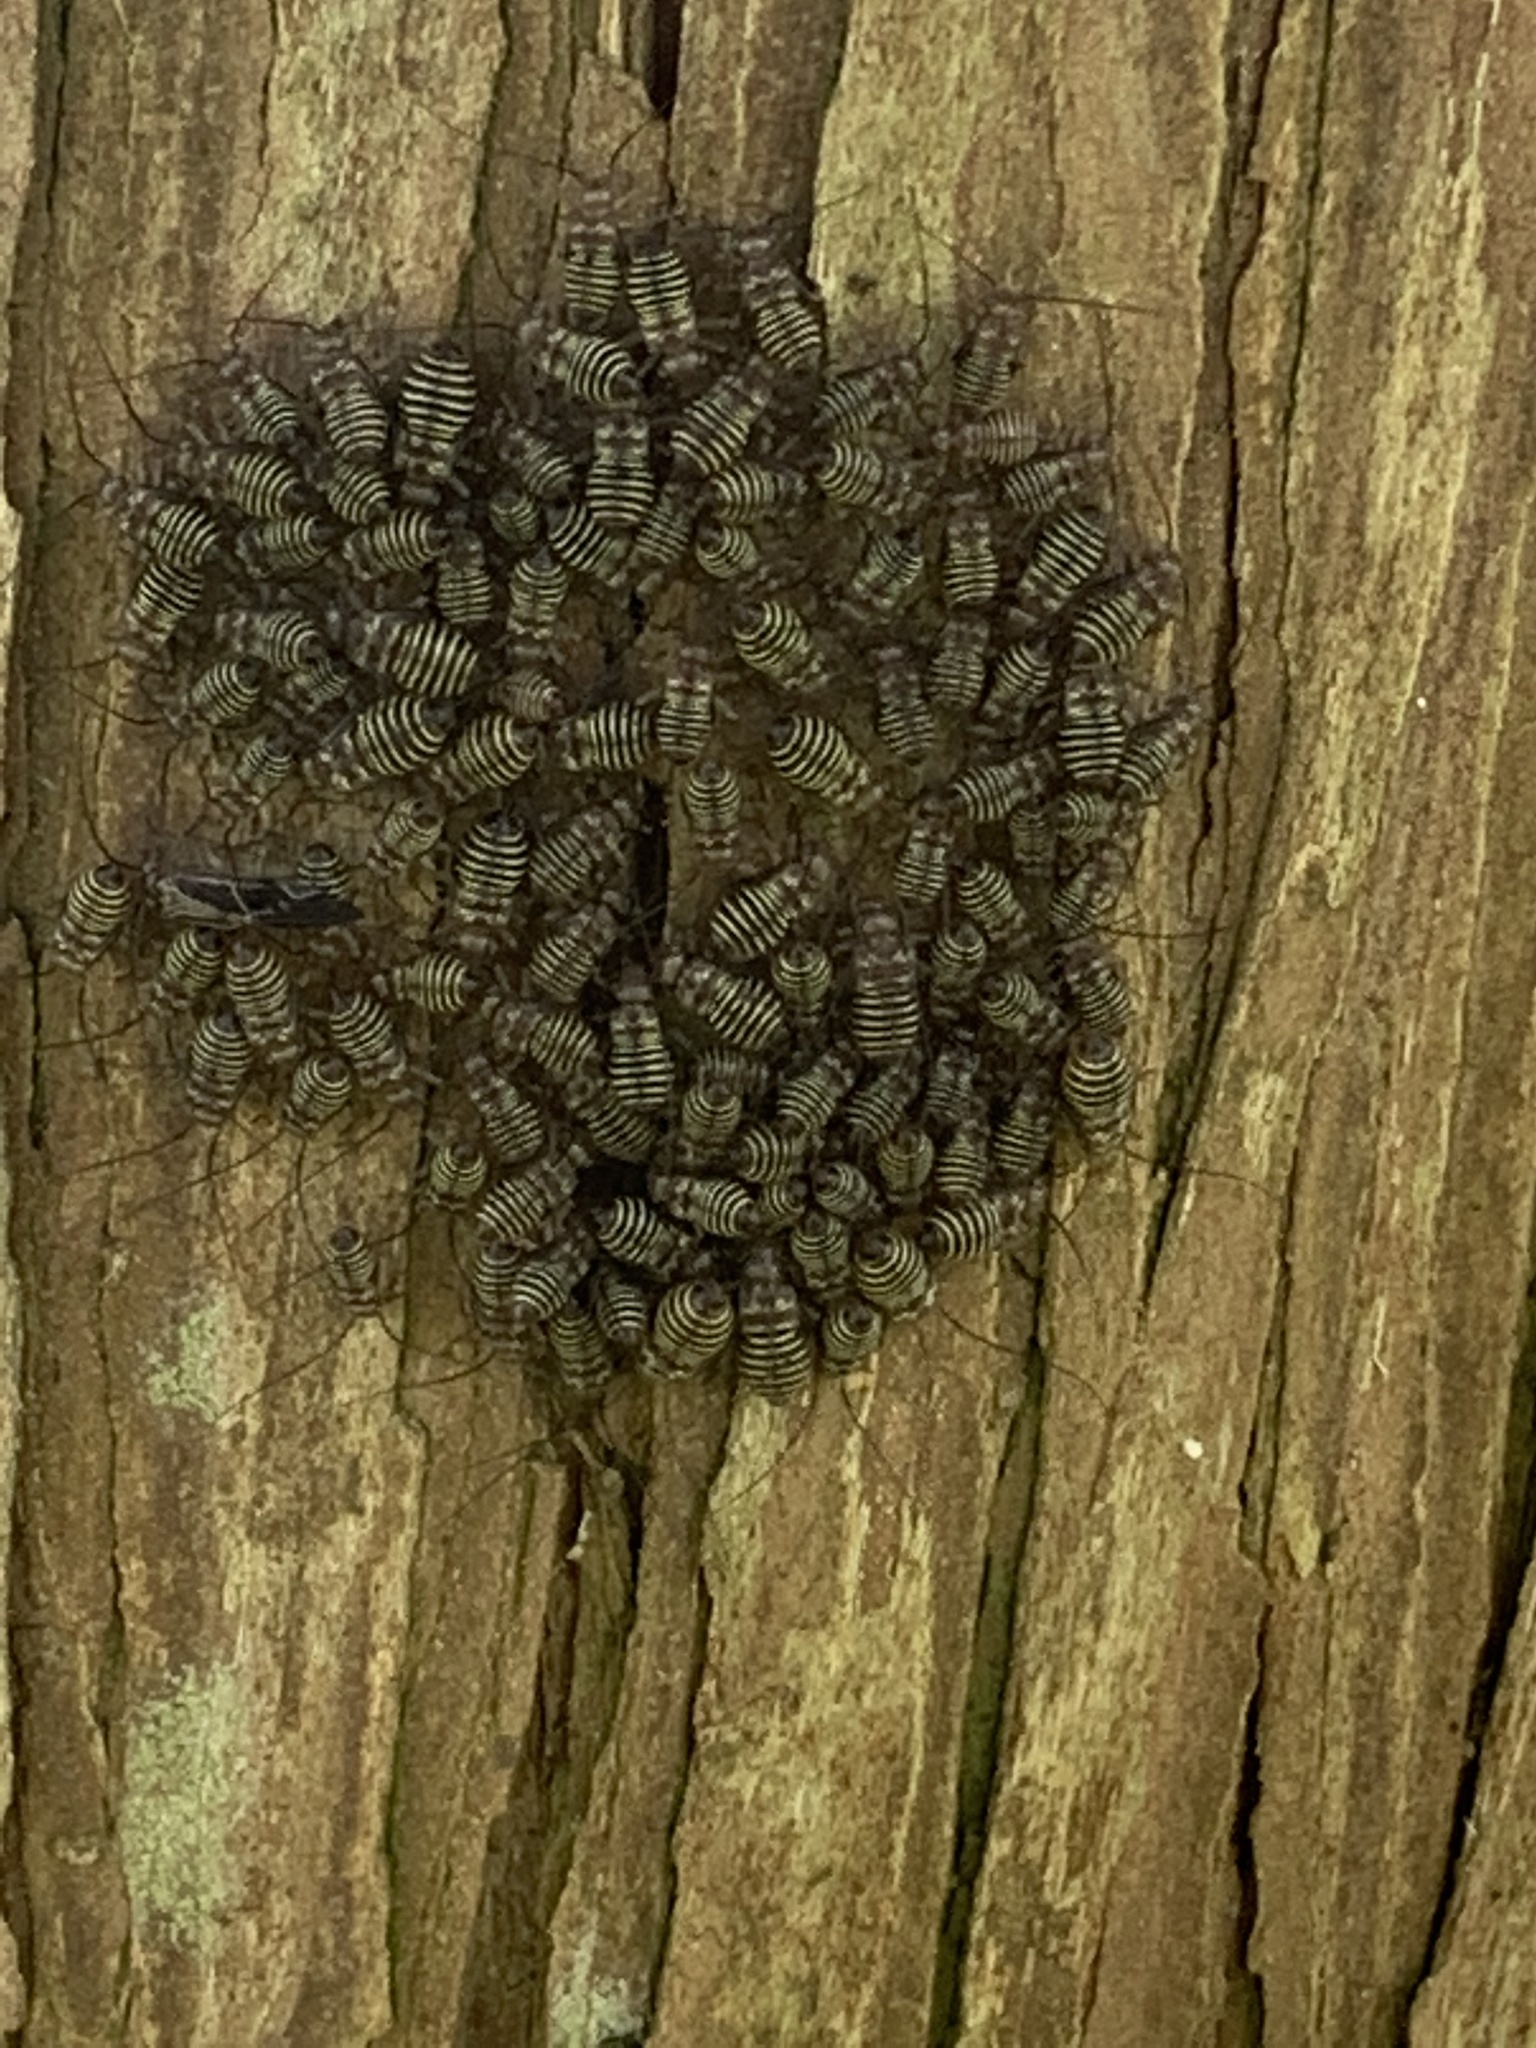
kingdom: Animalia
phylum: Arthropoda
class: Insecta
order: Psocodea
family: Psocidae
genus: Cerastipsocus
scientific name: Cerastipsocus venosus
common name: Tree cattle
